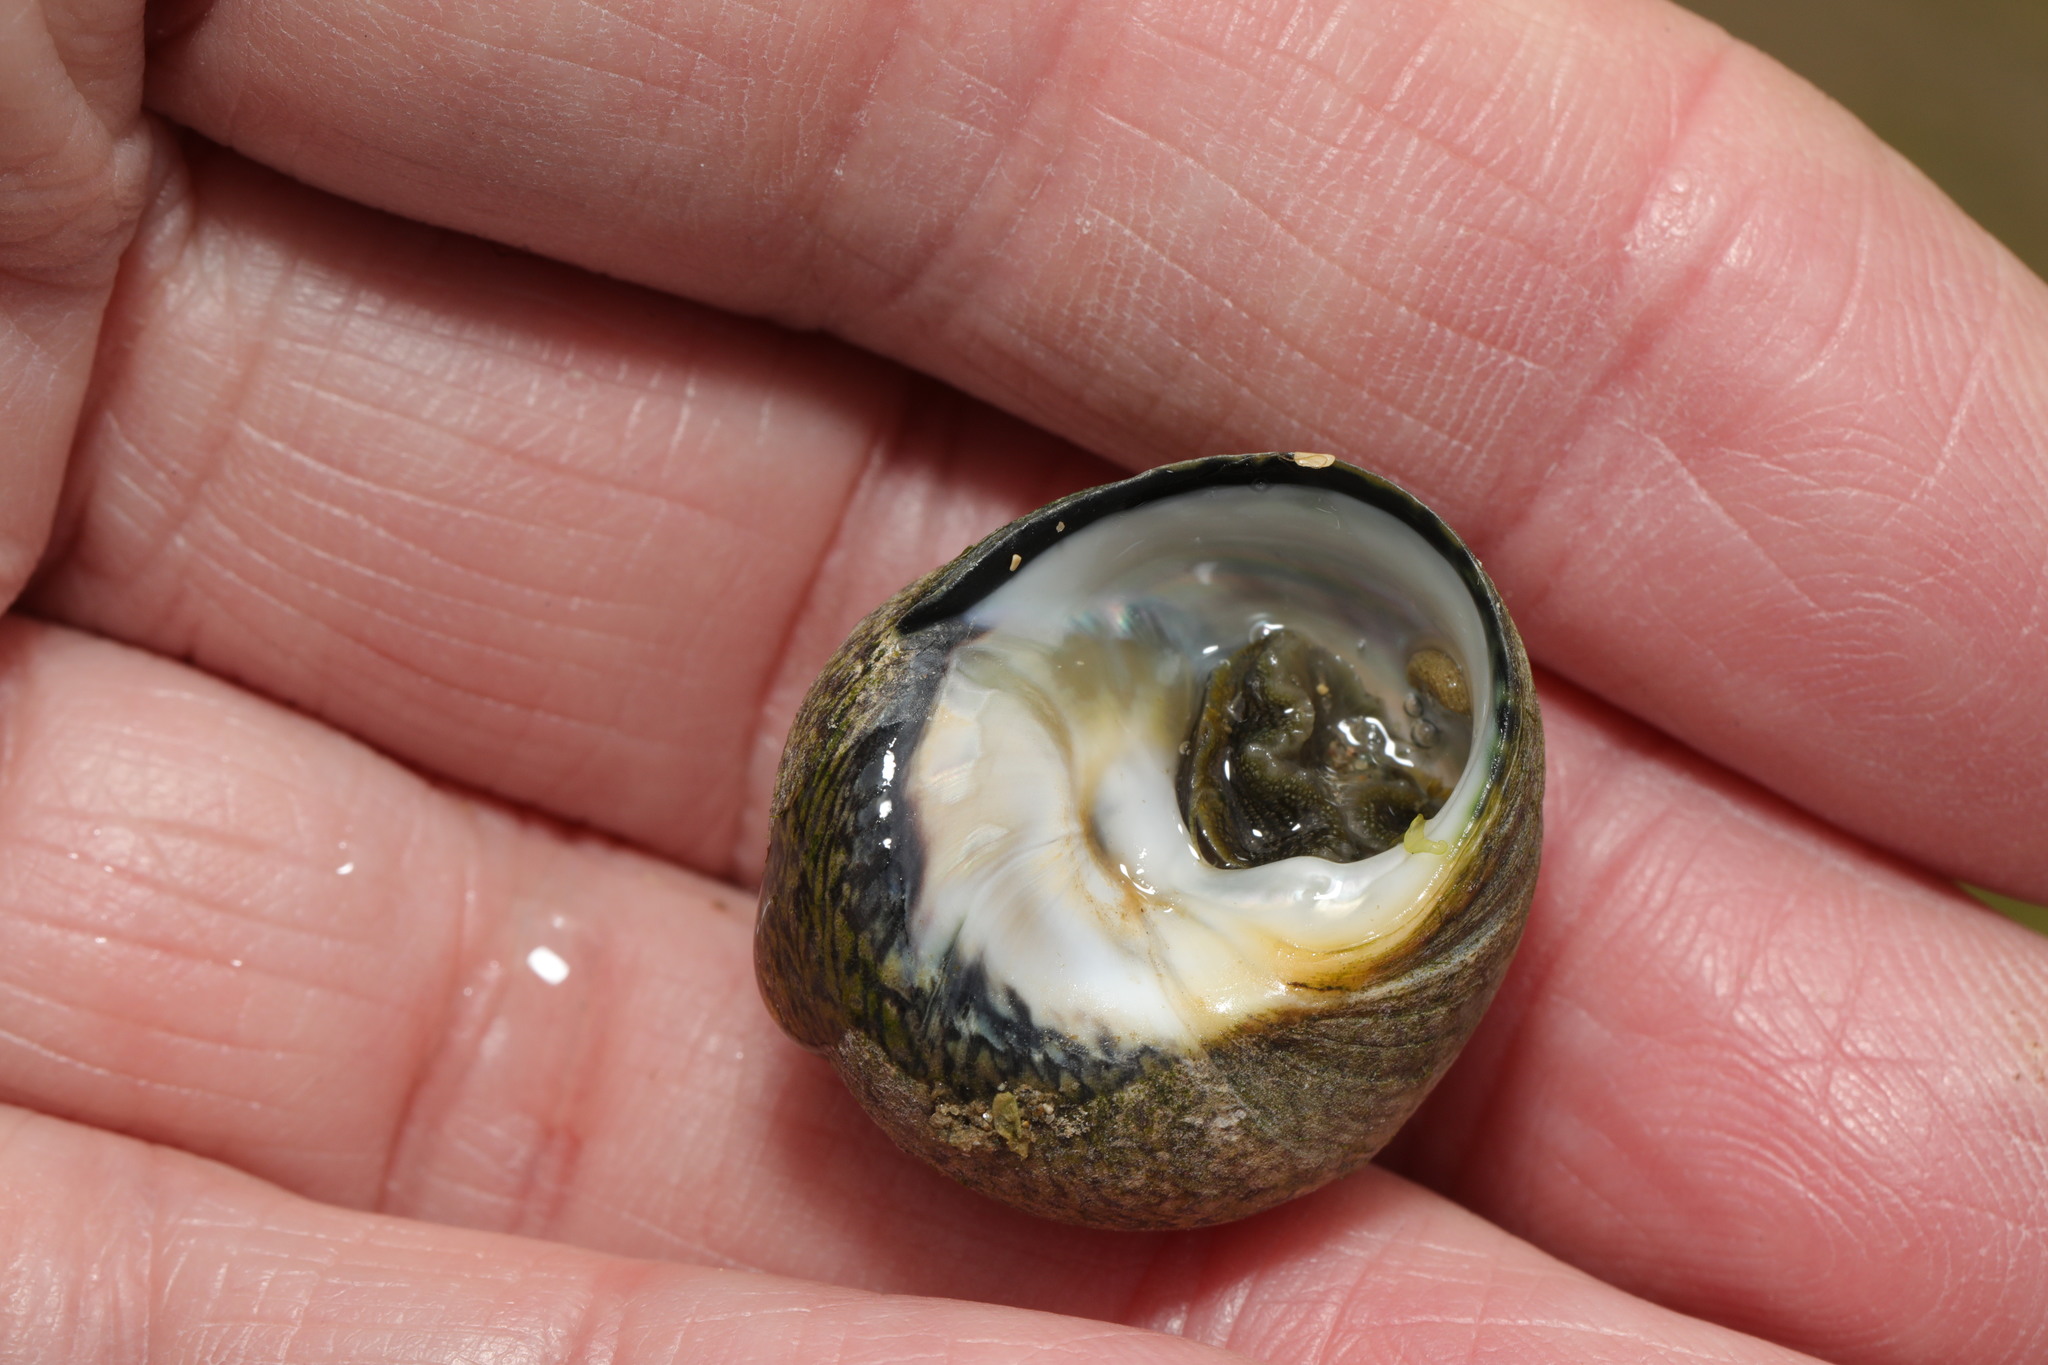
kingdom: Animalia
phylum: Mollusca
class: Gastropoda
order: Trochida
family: Trochidae
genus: Phorcus
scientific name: Phorcus lineatus
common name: Toothed top shell
